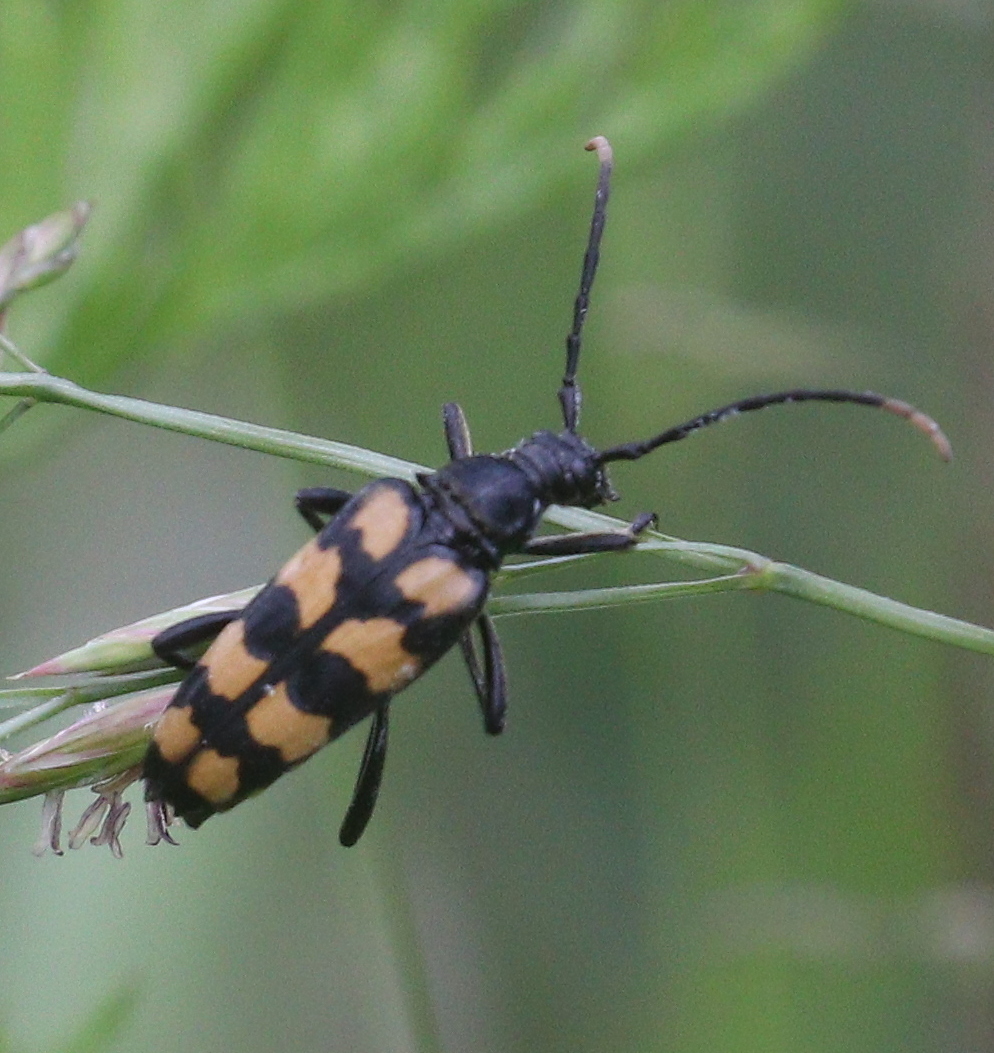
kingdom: Animalia
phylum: Arthropoda
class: Insecta
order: Coleoptera
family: Cerambycidae
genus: Leptura
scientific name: Leptura quadrifasciata
